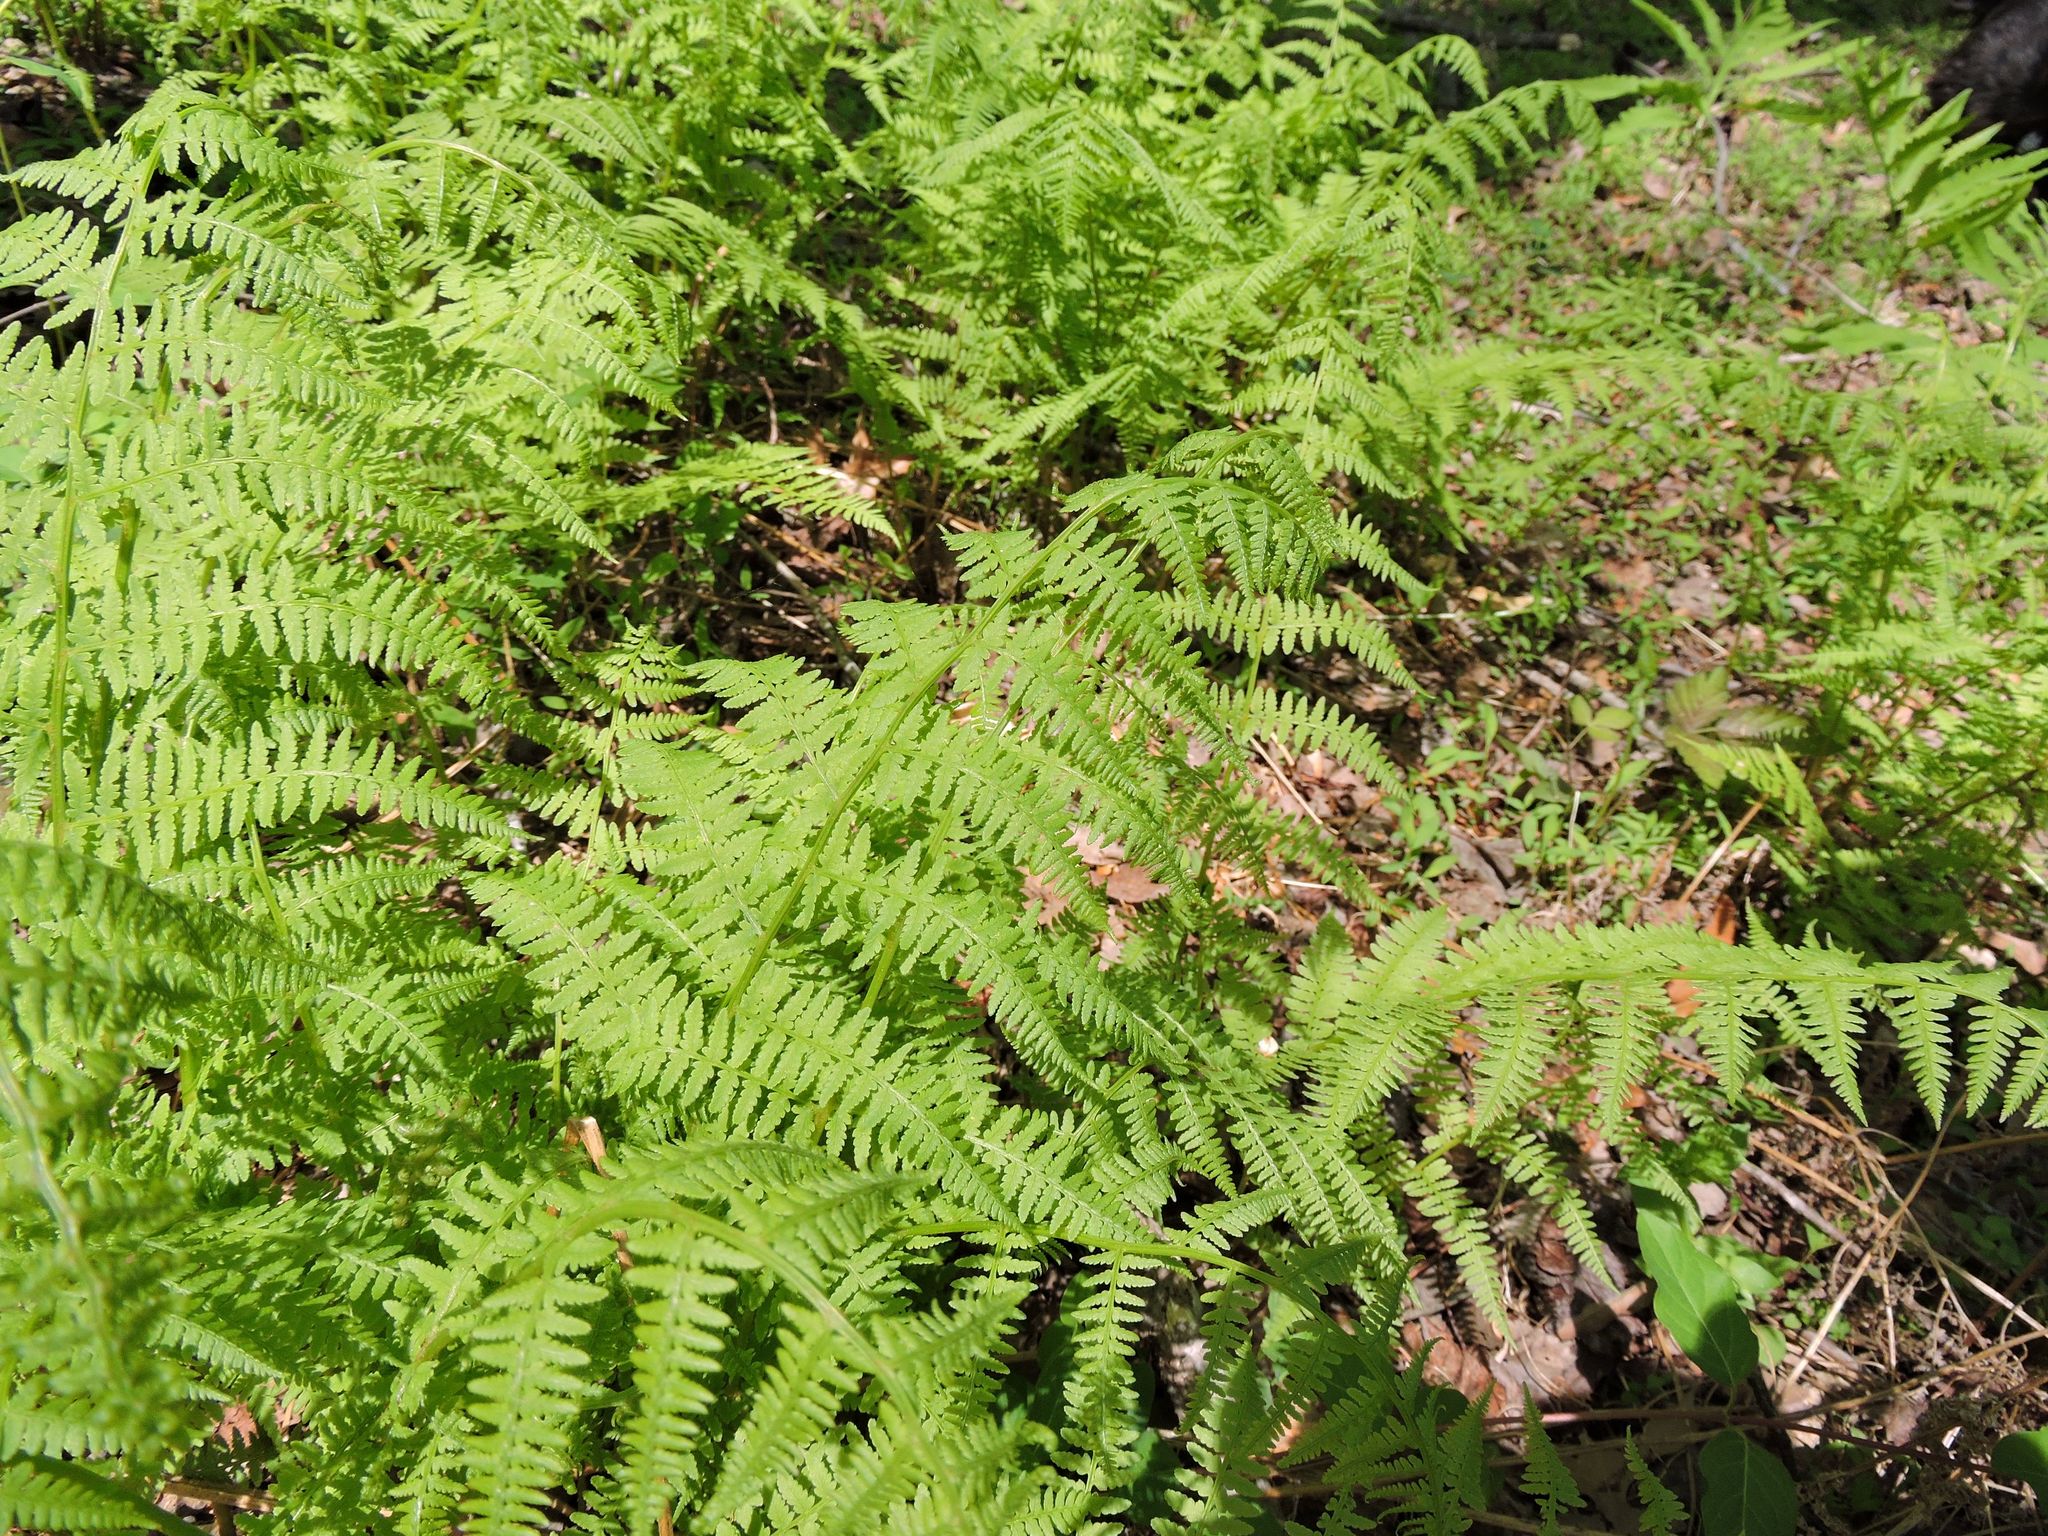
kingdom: Plantae
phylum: Tracheophyta
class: Polypodiopsida
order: Polypodiales
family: Dennstaedtiaceae
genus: Sitobolium
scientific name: Sitobolium punctilobum
